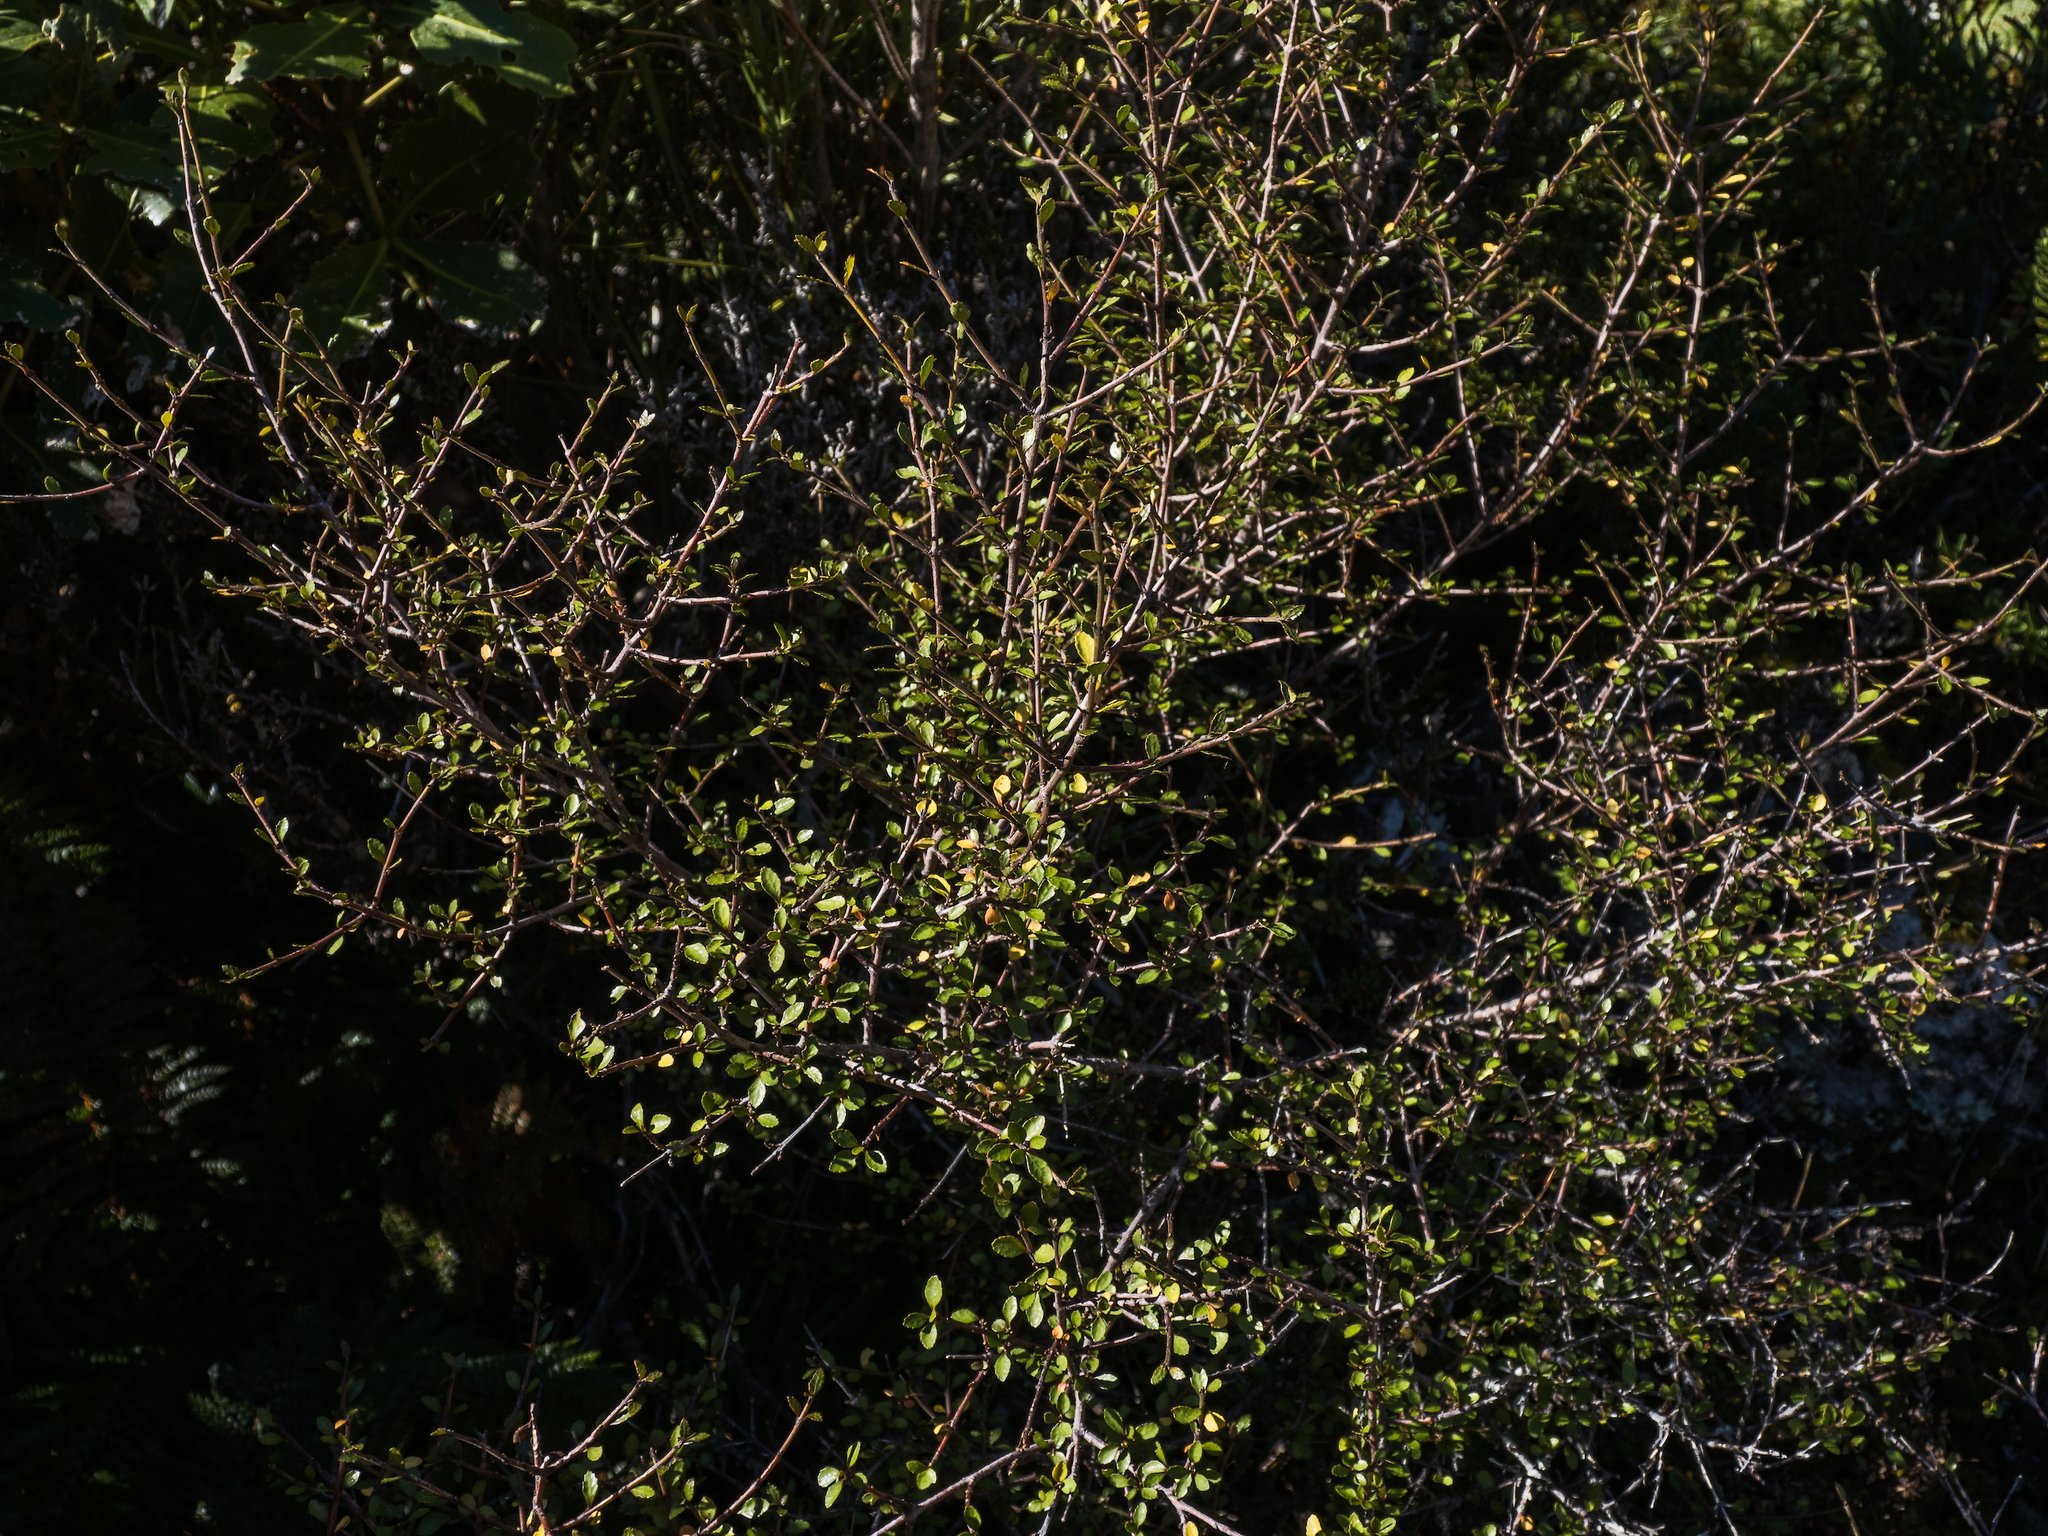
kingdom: Plantae
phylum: Tracheophyta
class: Magnoliopsida
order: Oxalidales
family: Elaeocarpaceae
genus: Aristotelia
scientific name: Aristotelia fruticosa
